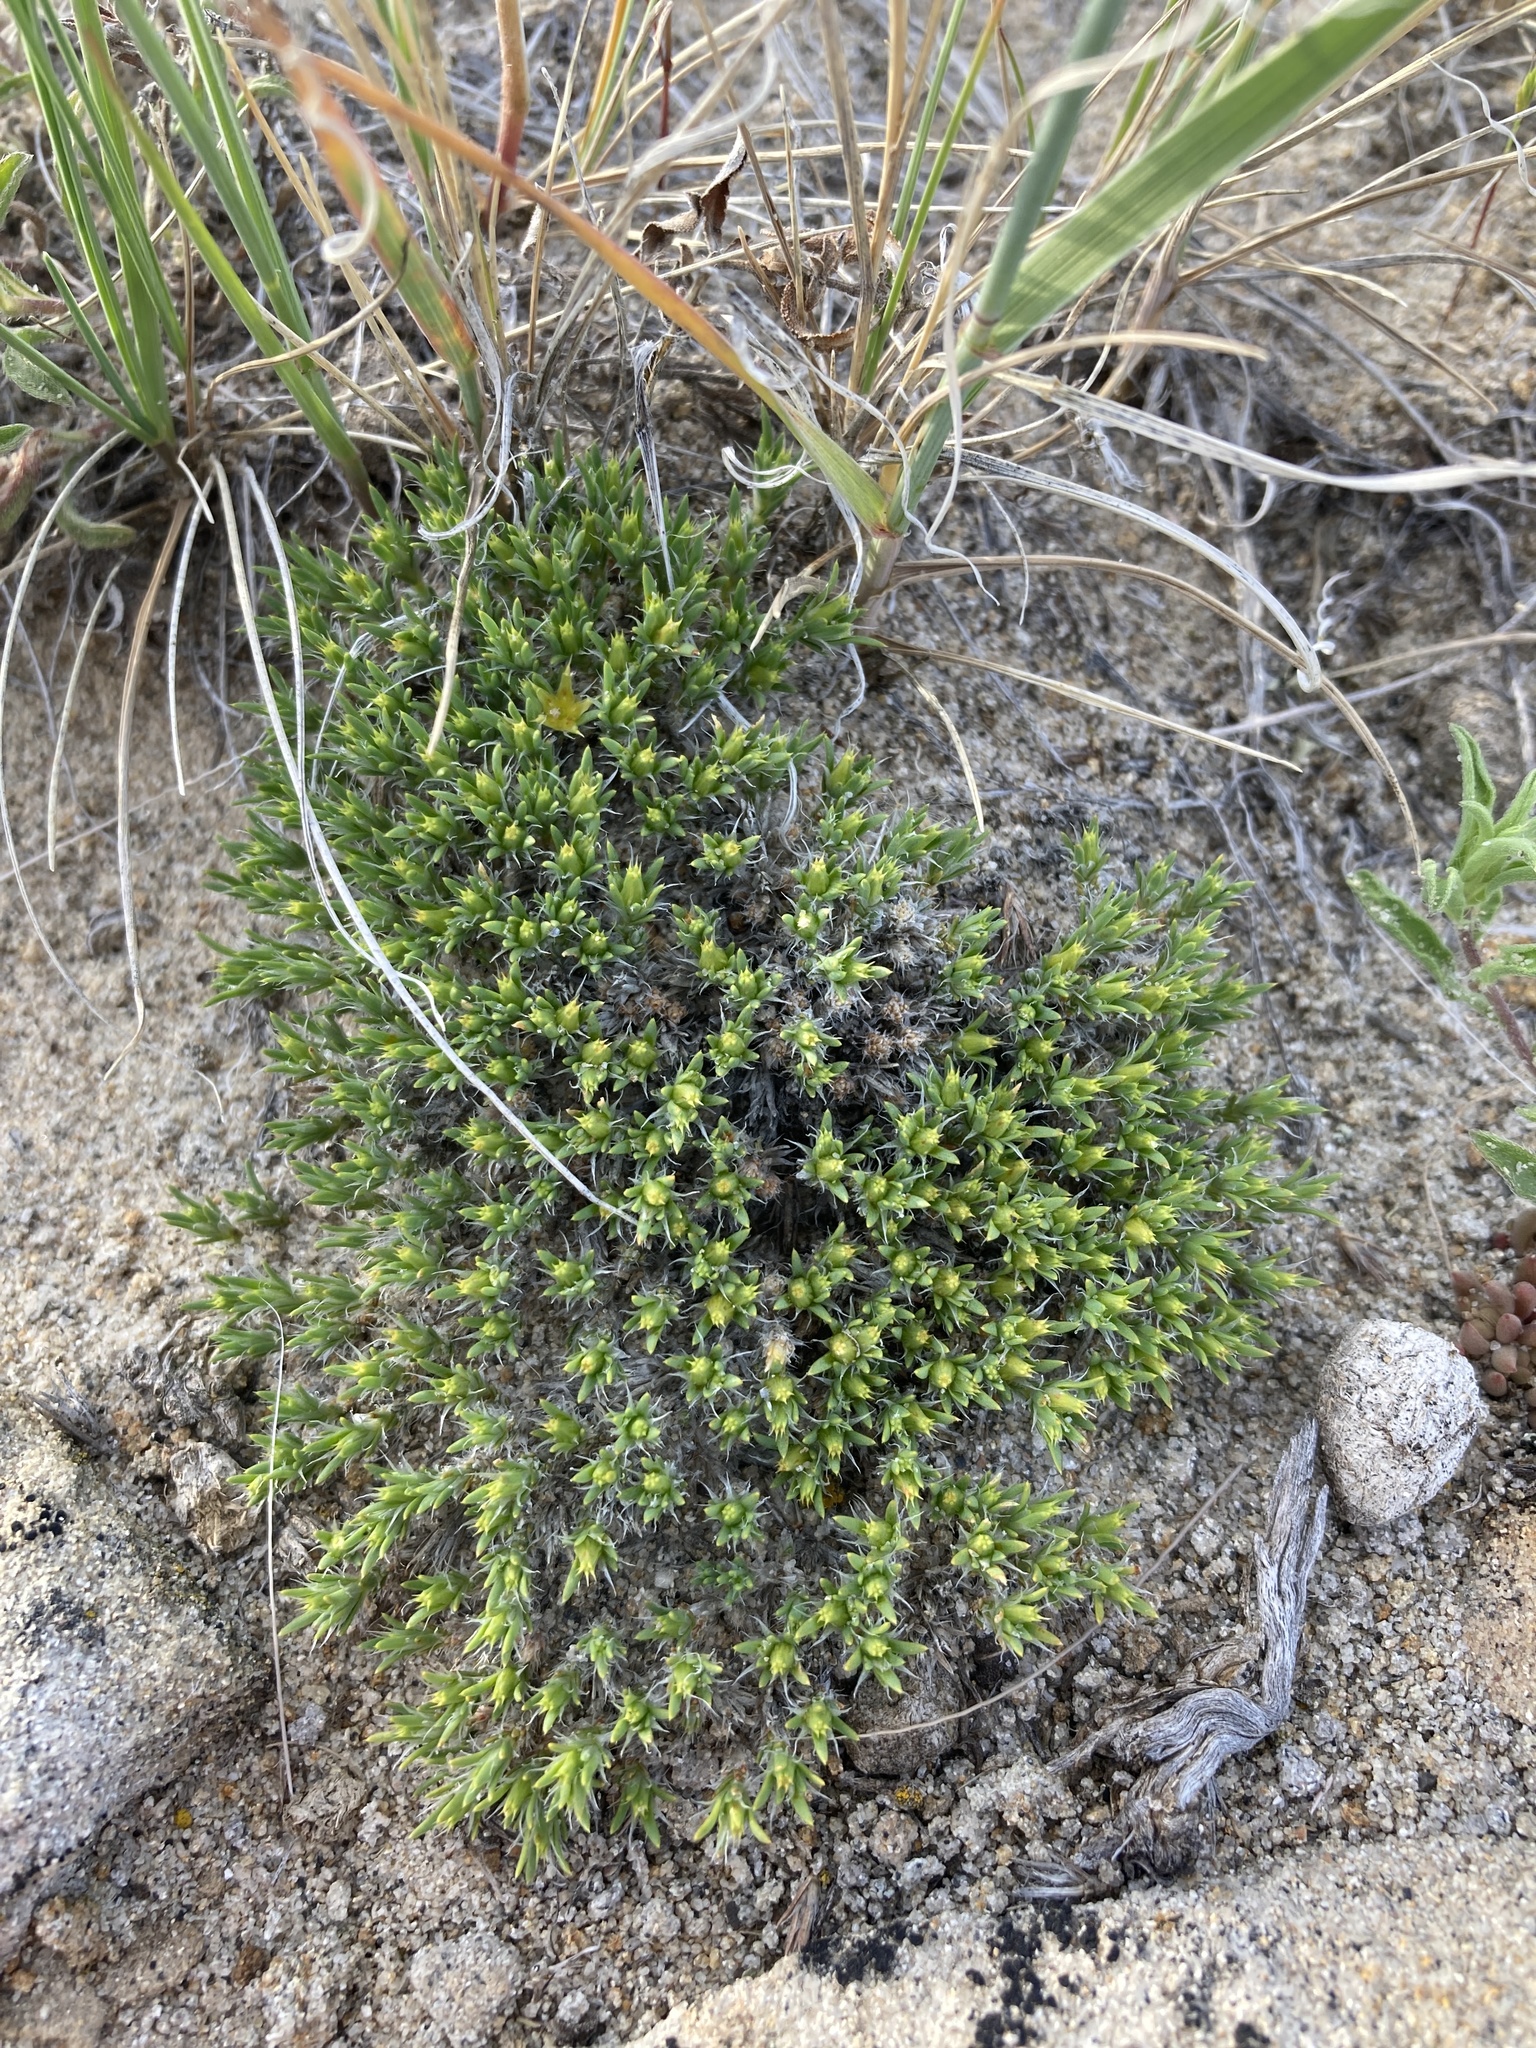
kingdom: Plantae
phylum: Tracheophyta
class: Magnoliopsida
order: Caryophyllales
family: Caryophyllaceae
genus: Paronychia
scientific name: Paronychia sessiliflora
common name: Creeping nailwort
